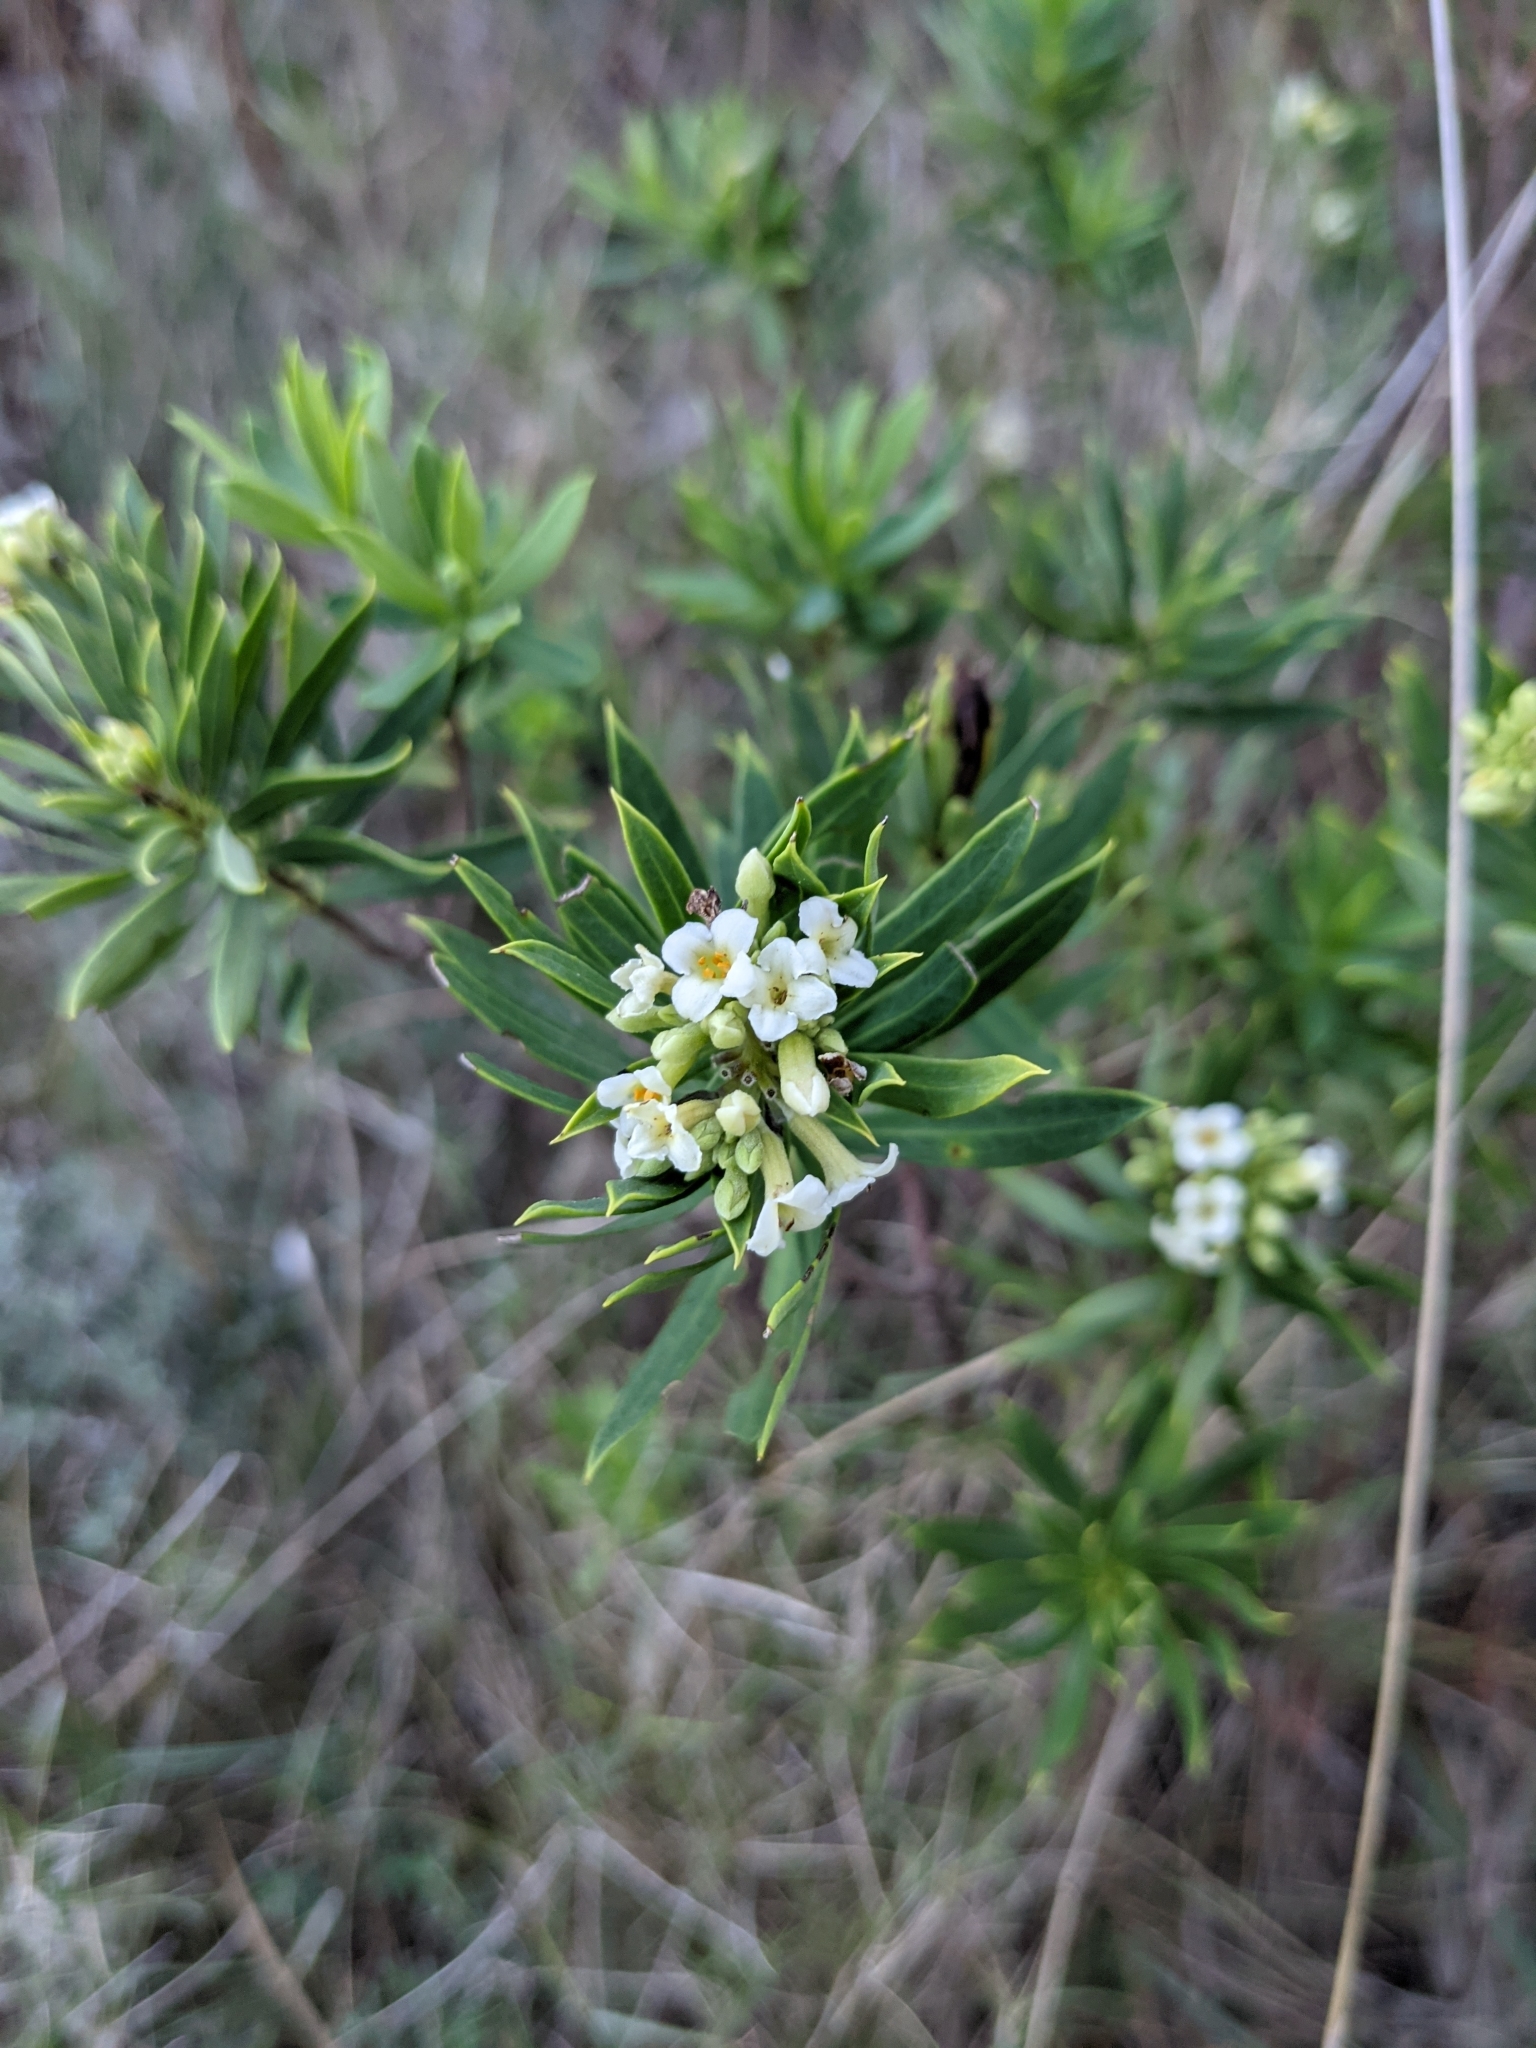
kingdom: Plantae
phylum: Tracheophyta
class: Magnoliopsida
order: Malvales
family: Thymelaeaceae
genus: Daphne
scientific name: Daphne gnidium
